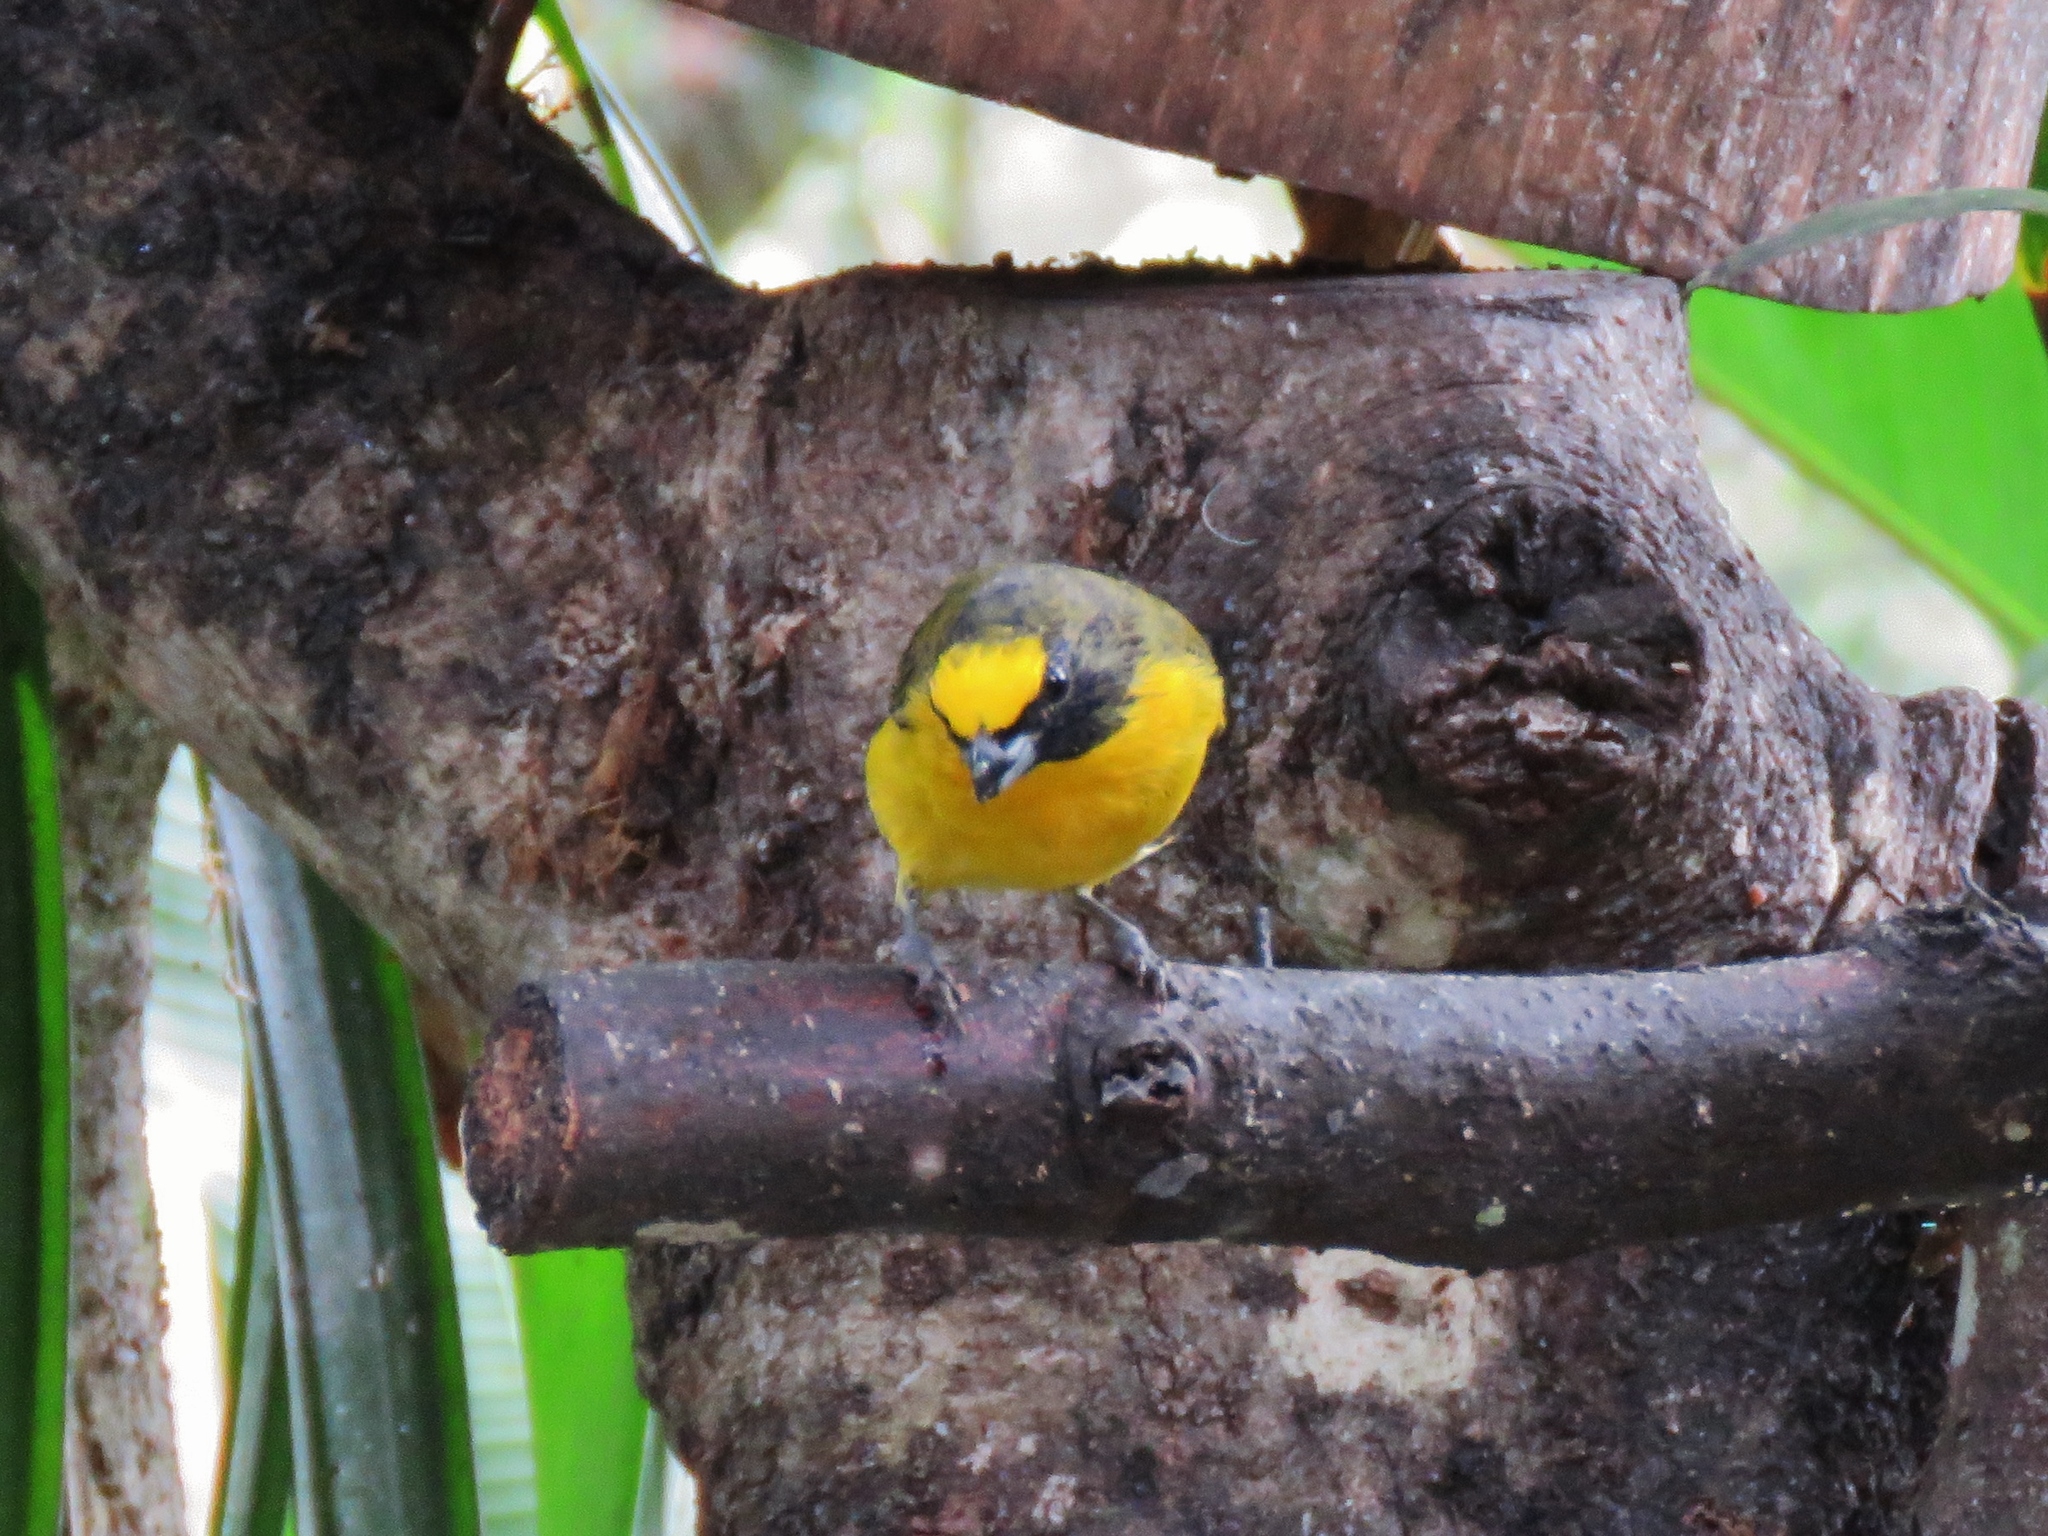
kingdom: Animalia
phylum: Chordata
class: Aves
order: Passeriformes
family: Fringillidae
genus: Euphonia
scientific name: Euphonia laniirostris
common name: Thick-billed euphonia
